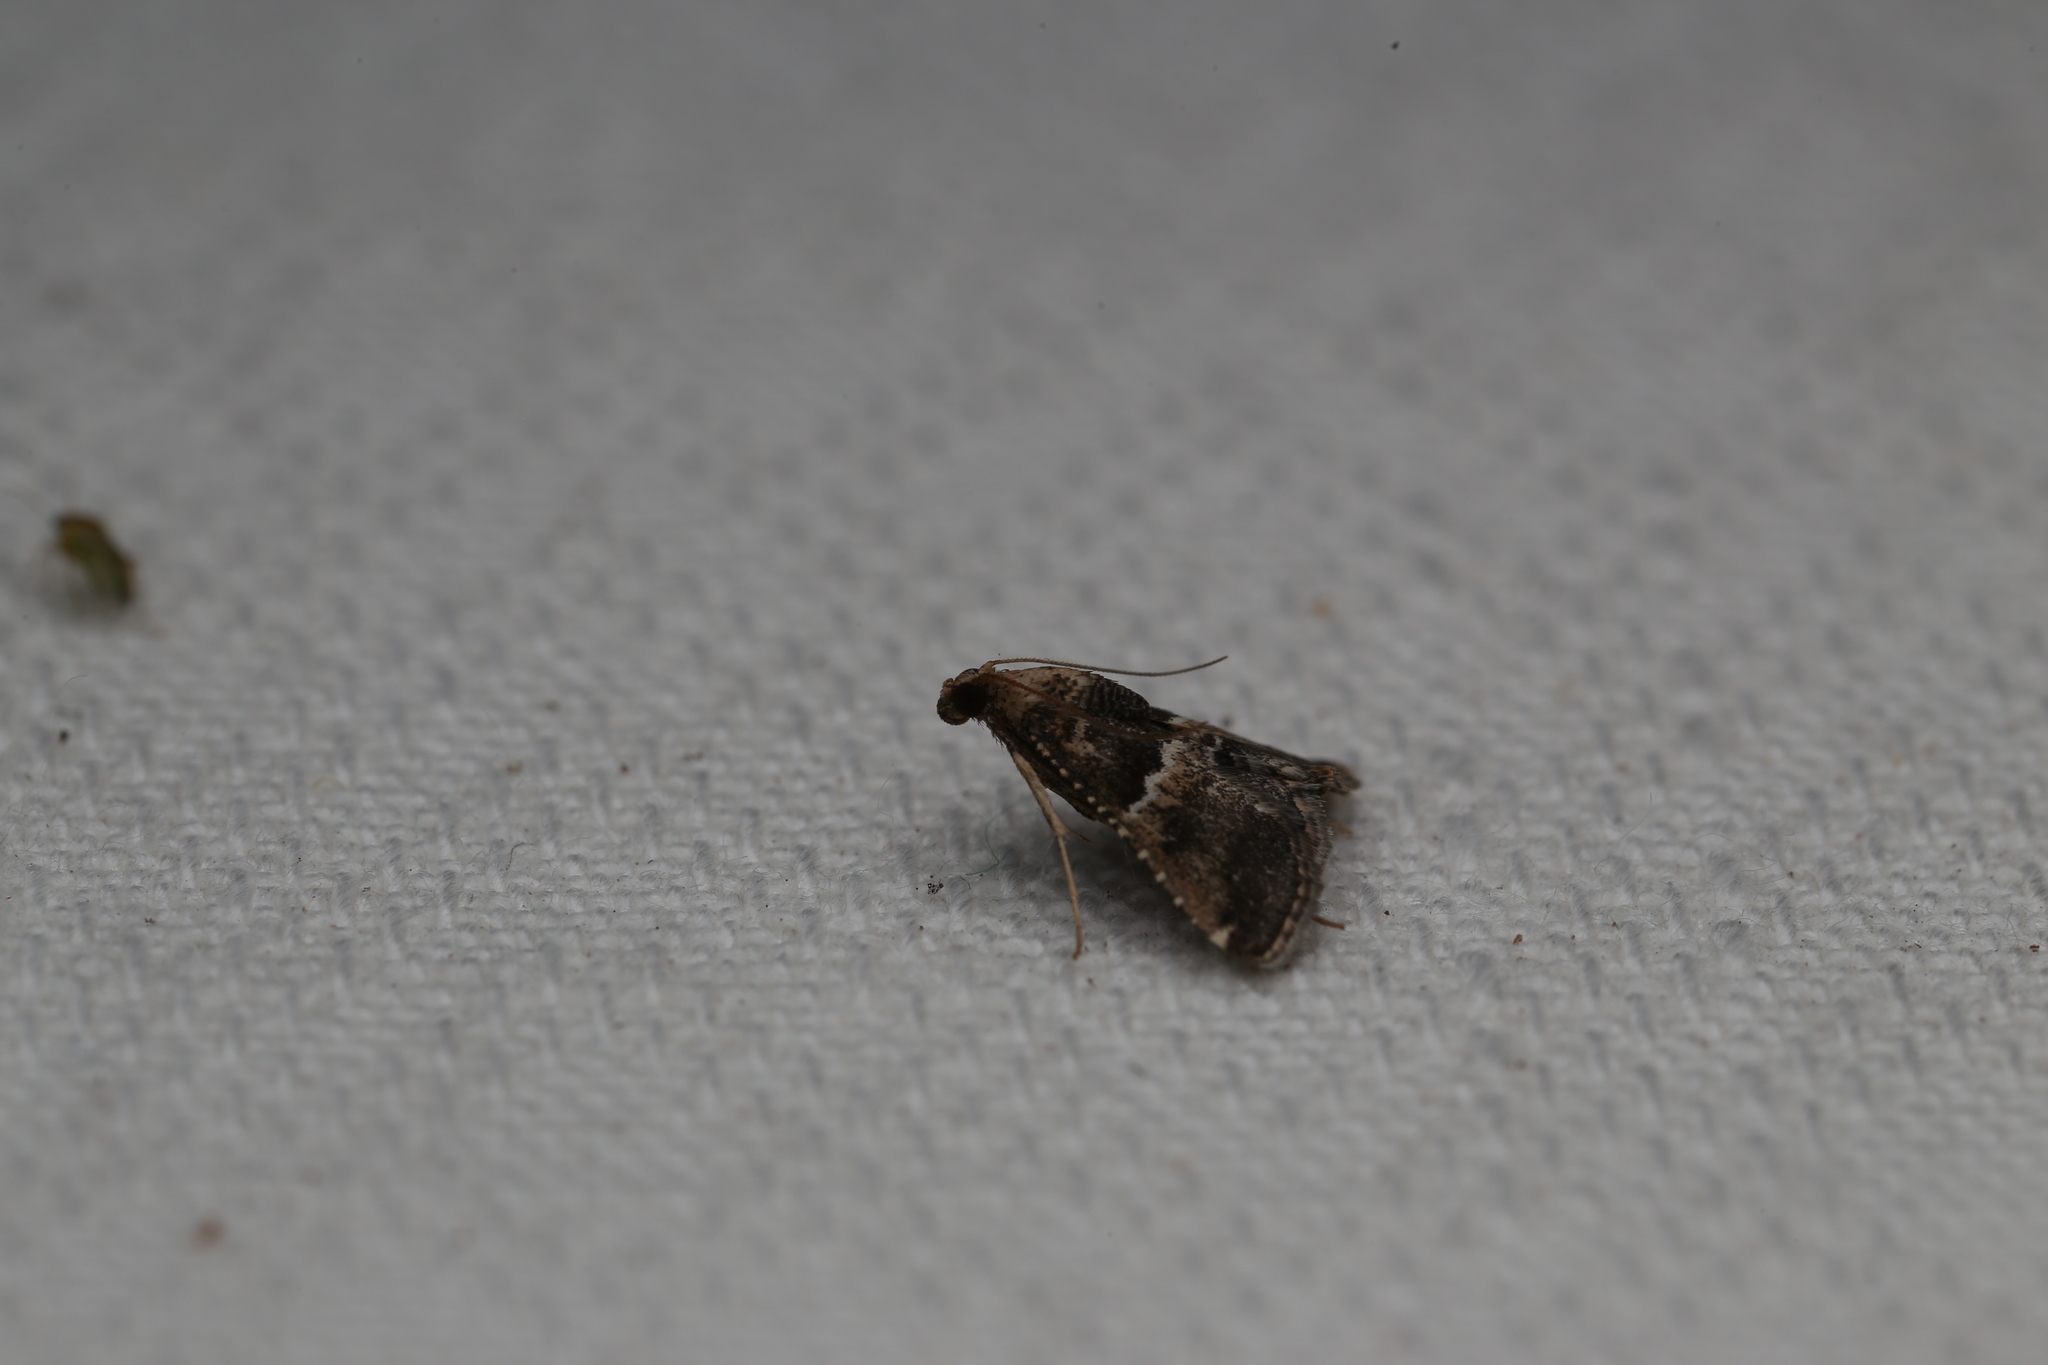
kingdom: Animalia
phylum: Arthropoda
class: Insecta
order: Lepidoptera
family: Pyralidae
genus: Endotricha
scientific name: Endotricha puncticostalis
